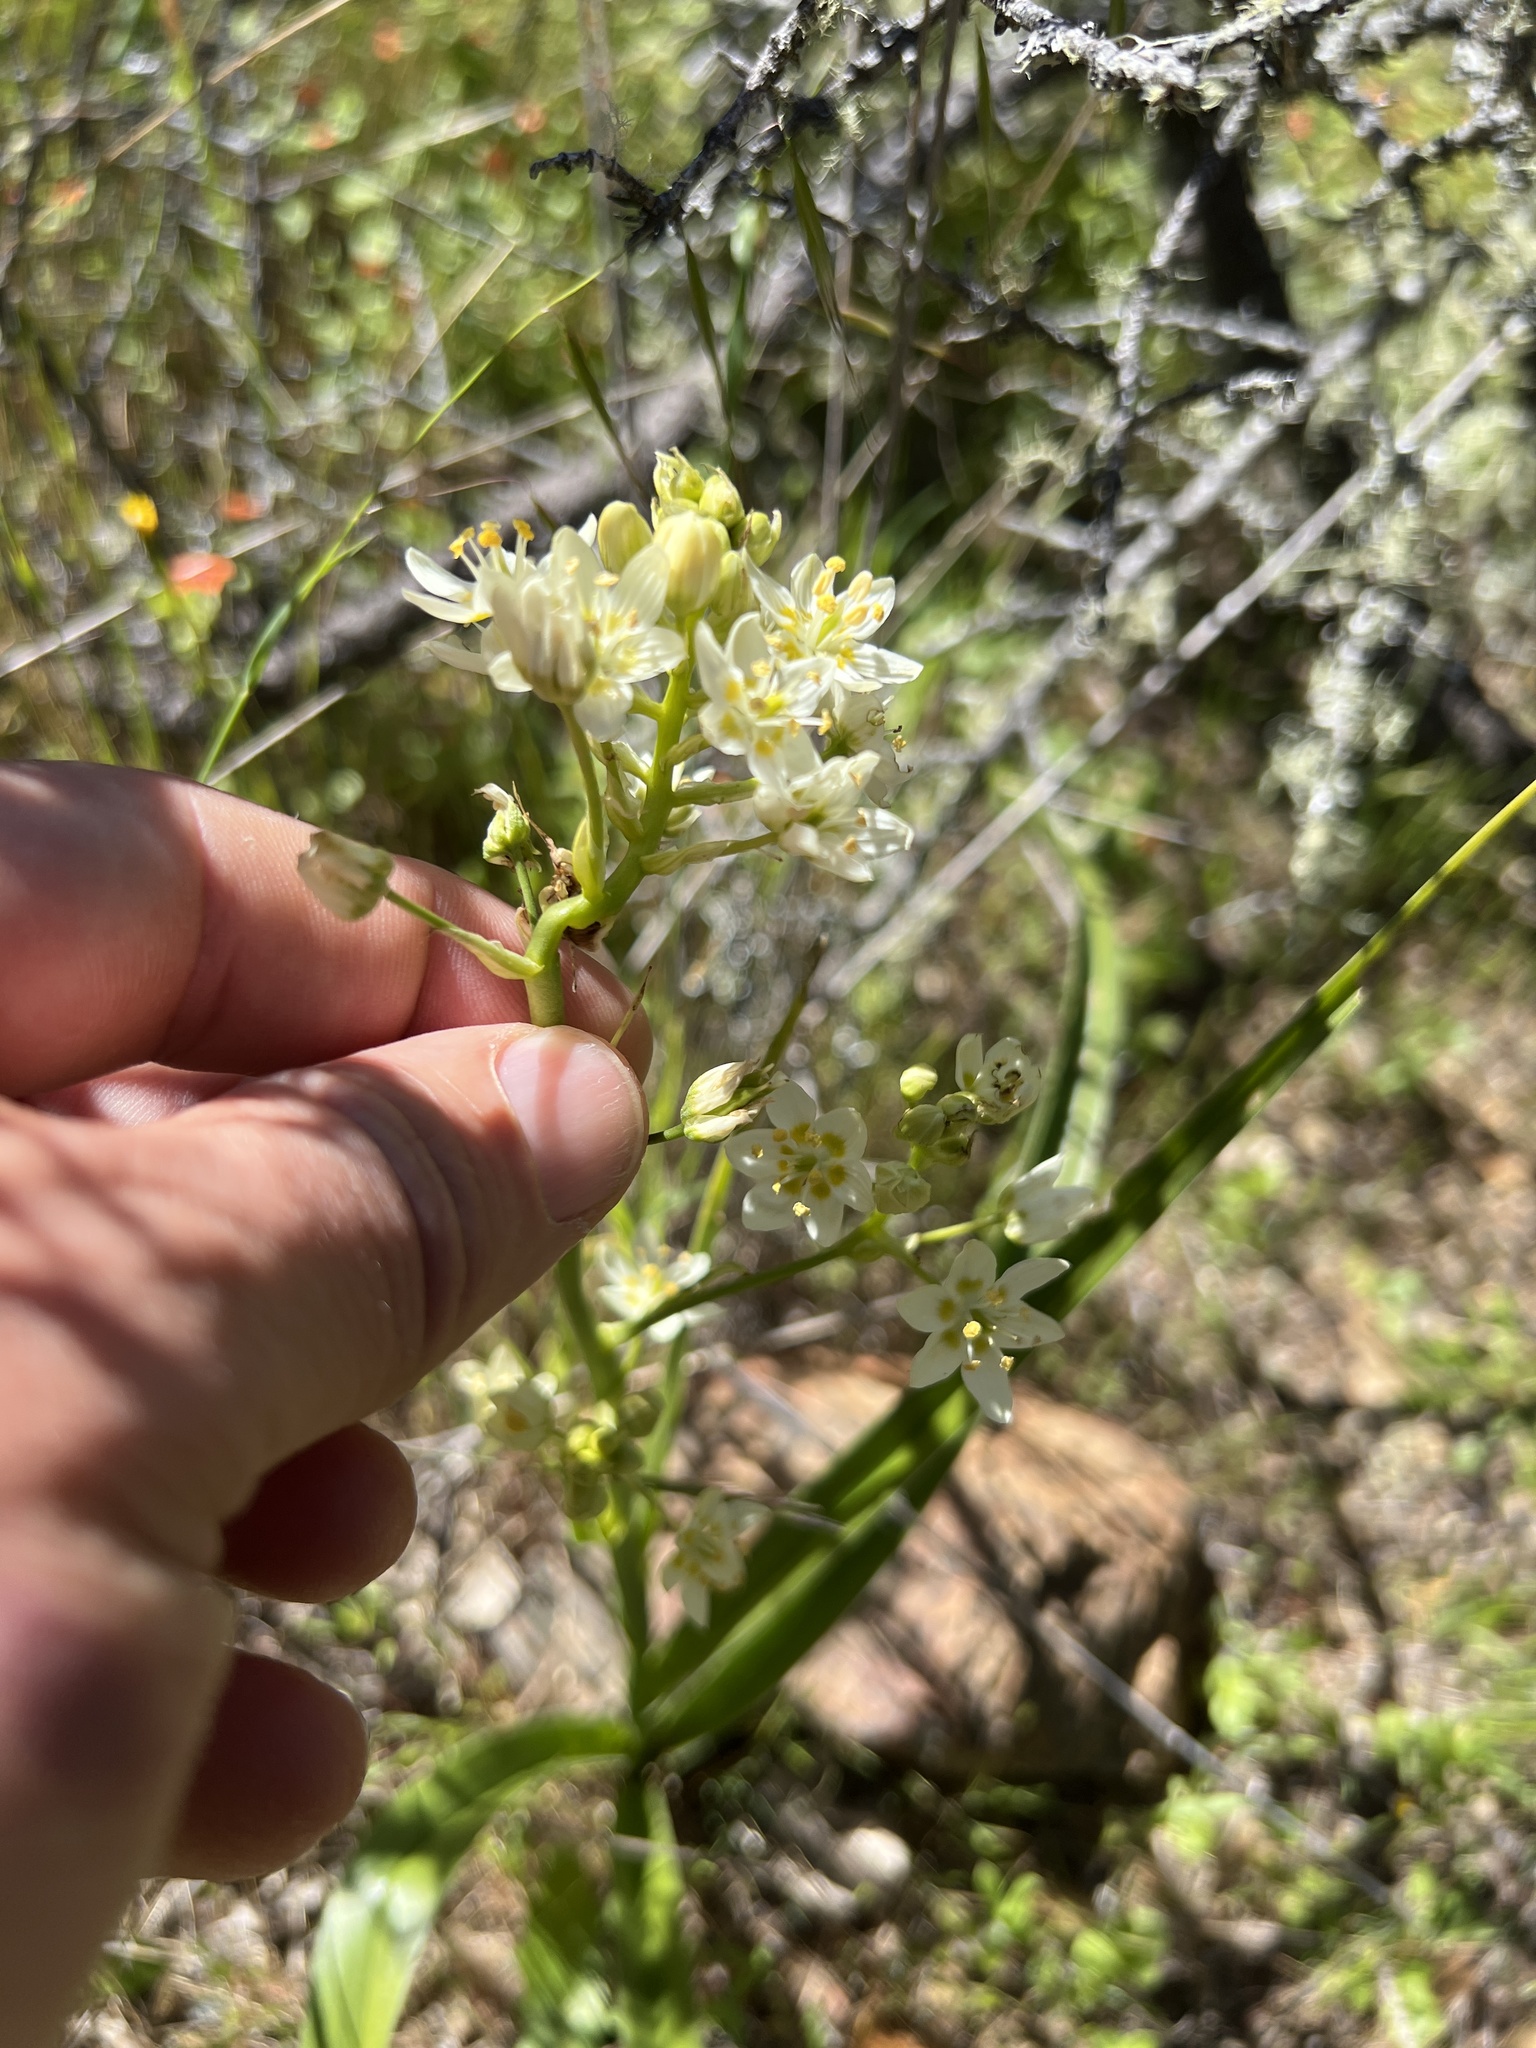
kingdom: Plantae
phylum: Tracheophyta
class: Liliopsida
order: Liliales
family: Melanthiaceae
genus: Toxicoscordion
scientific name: Toxicoscordion fremontii
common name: Fremont's death camas
